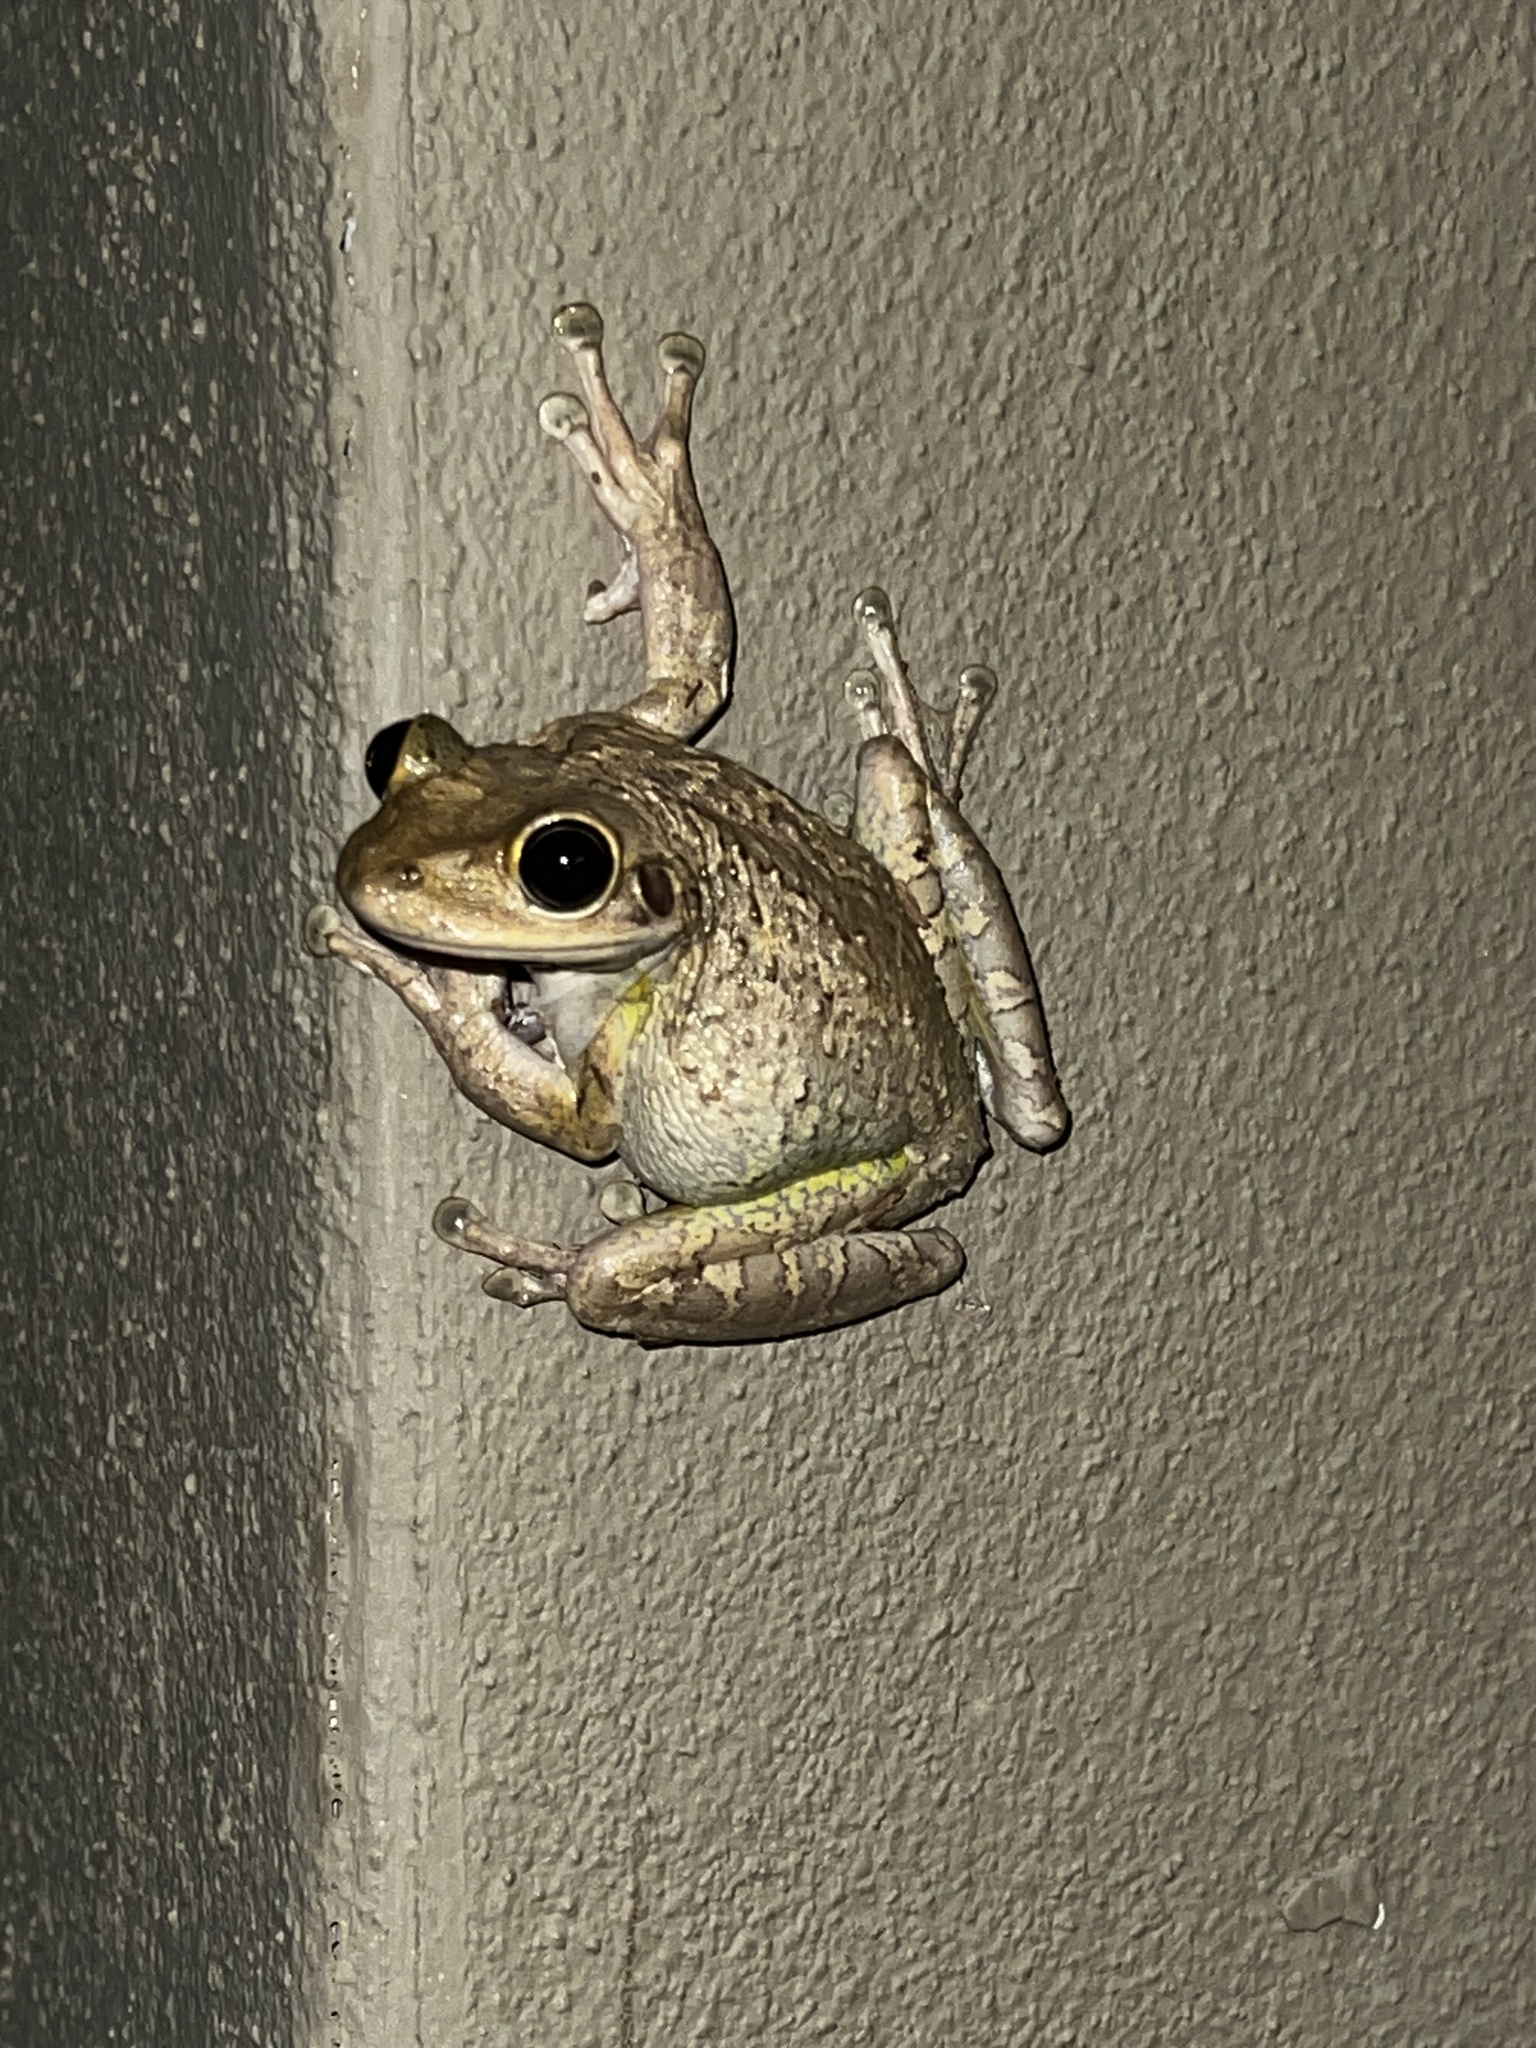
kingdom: Animalia
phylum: Chordata
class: Amphibia
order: Anura
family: Hylidae
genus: Osteopilus
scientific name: Osteopilus septentrionalis
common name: Cuban treefrog
